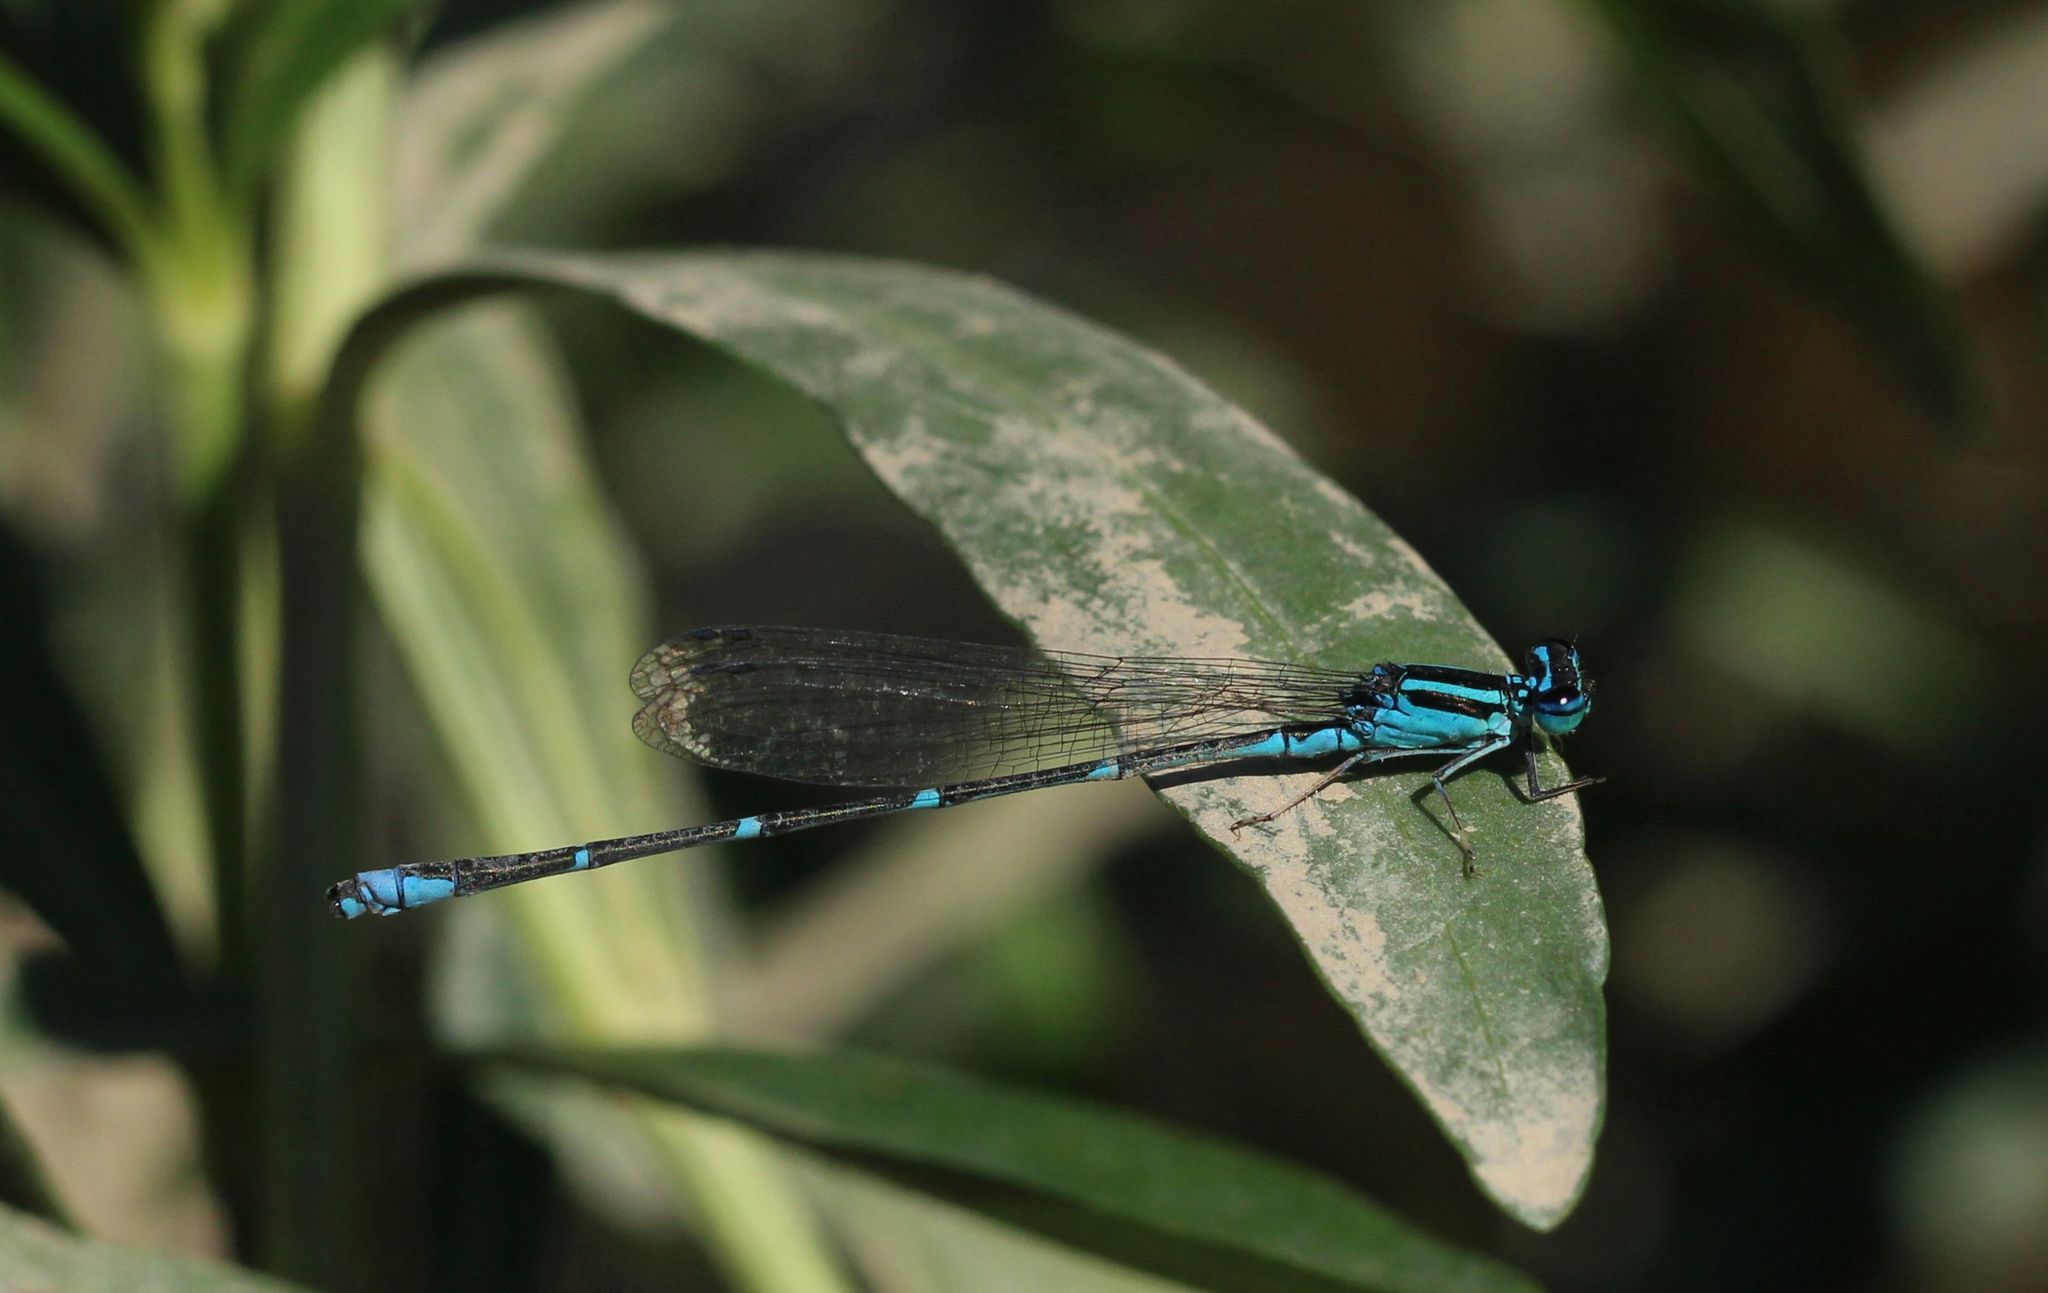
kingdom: Animalia
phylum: Arthropoda
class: Insecta
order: Odonata
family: Coenagrionidae
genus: Enallagma
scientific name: Enallagma exsulans
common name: Stream bluet
